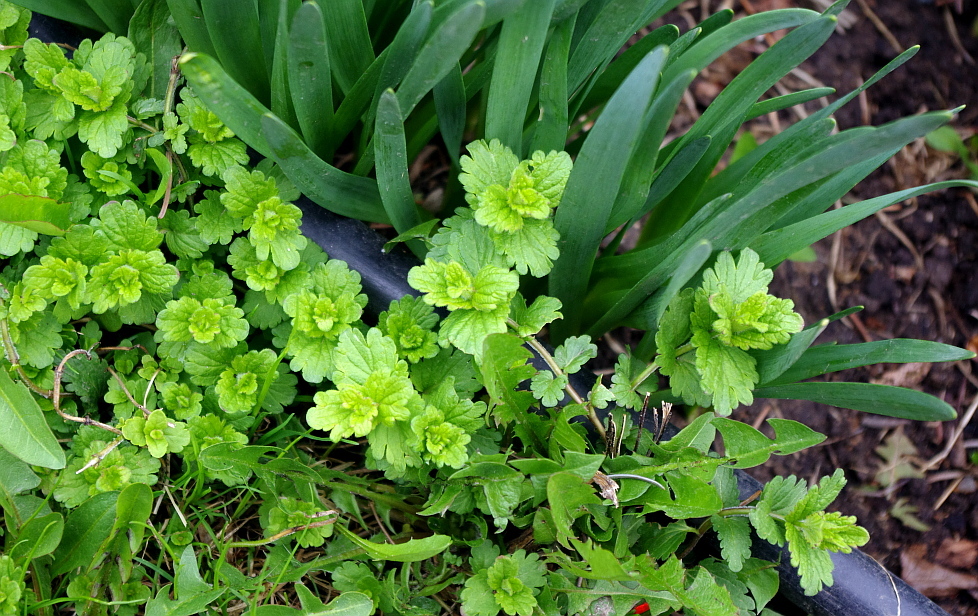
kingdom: Plantae
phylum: Tracheophyta
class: Magnoliopsida
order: Lamiales
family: Plantaginaceae
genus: Veronica
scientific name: Veronica chamaedrys
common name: Germander speedwell
